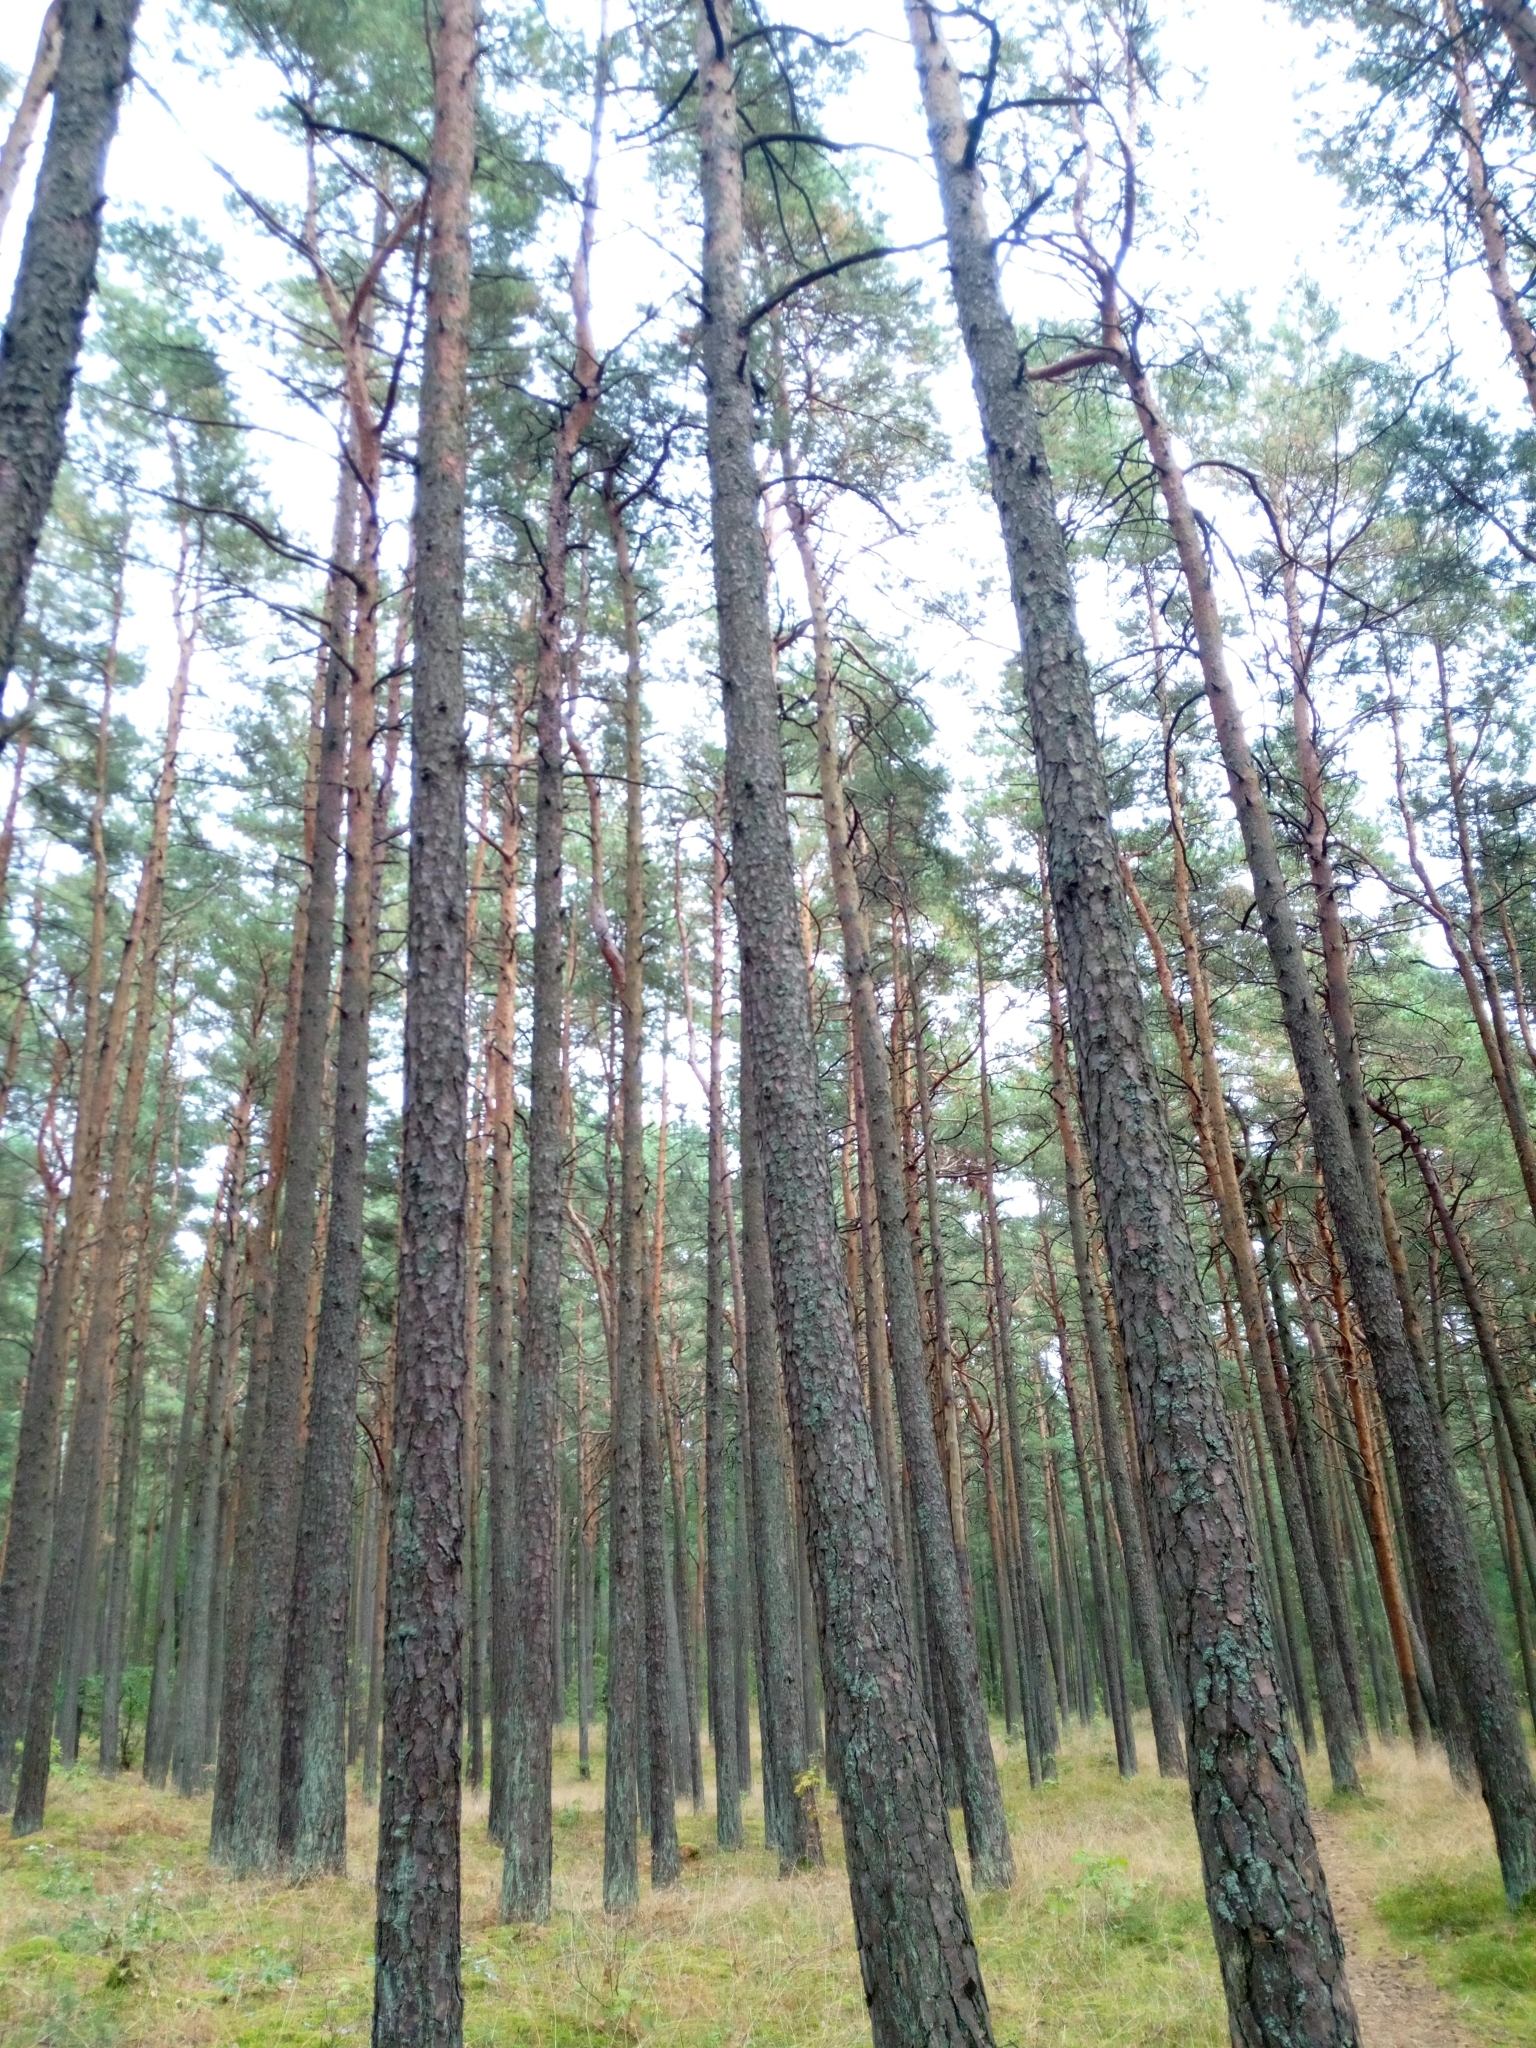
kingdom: Plantae
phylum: Tracheophyta
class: Pinopsida
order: Pinales
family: Pinaceae
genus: Pinus
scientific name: Pinus sylvestris
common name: Scots pine
